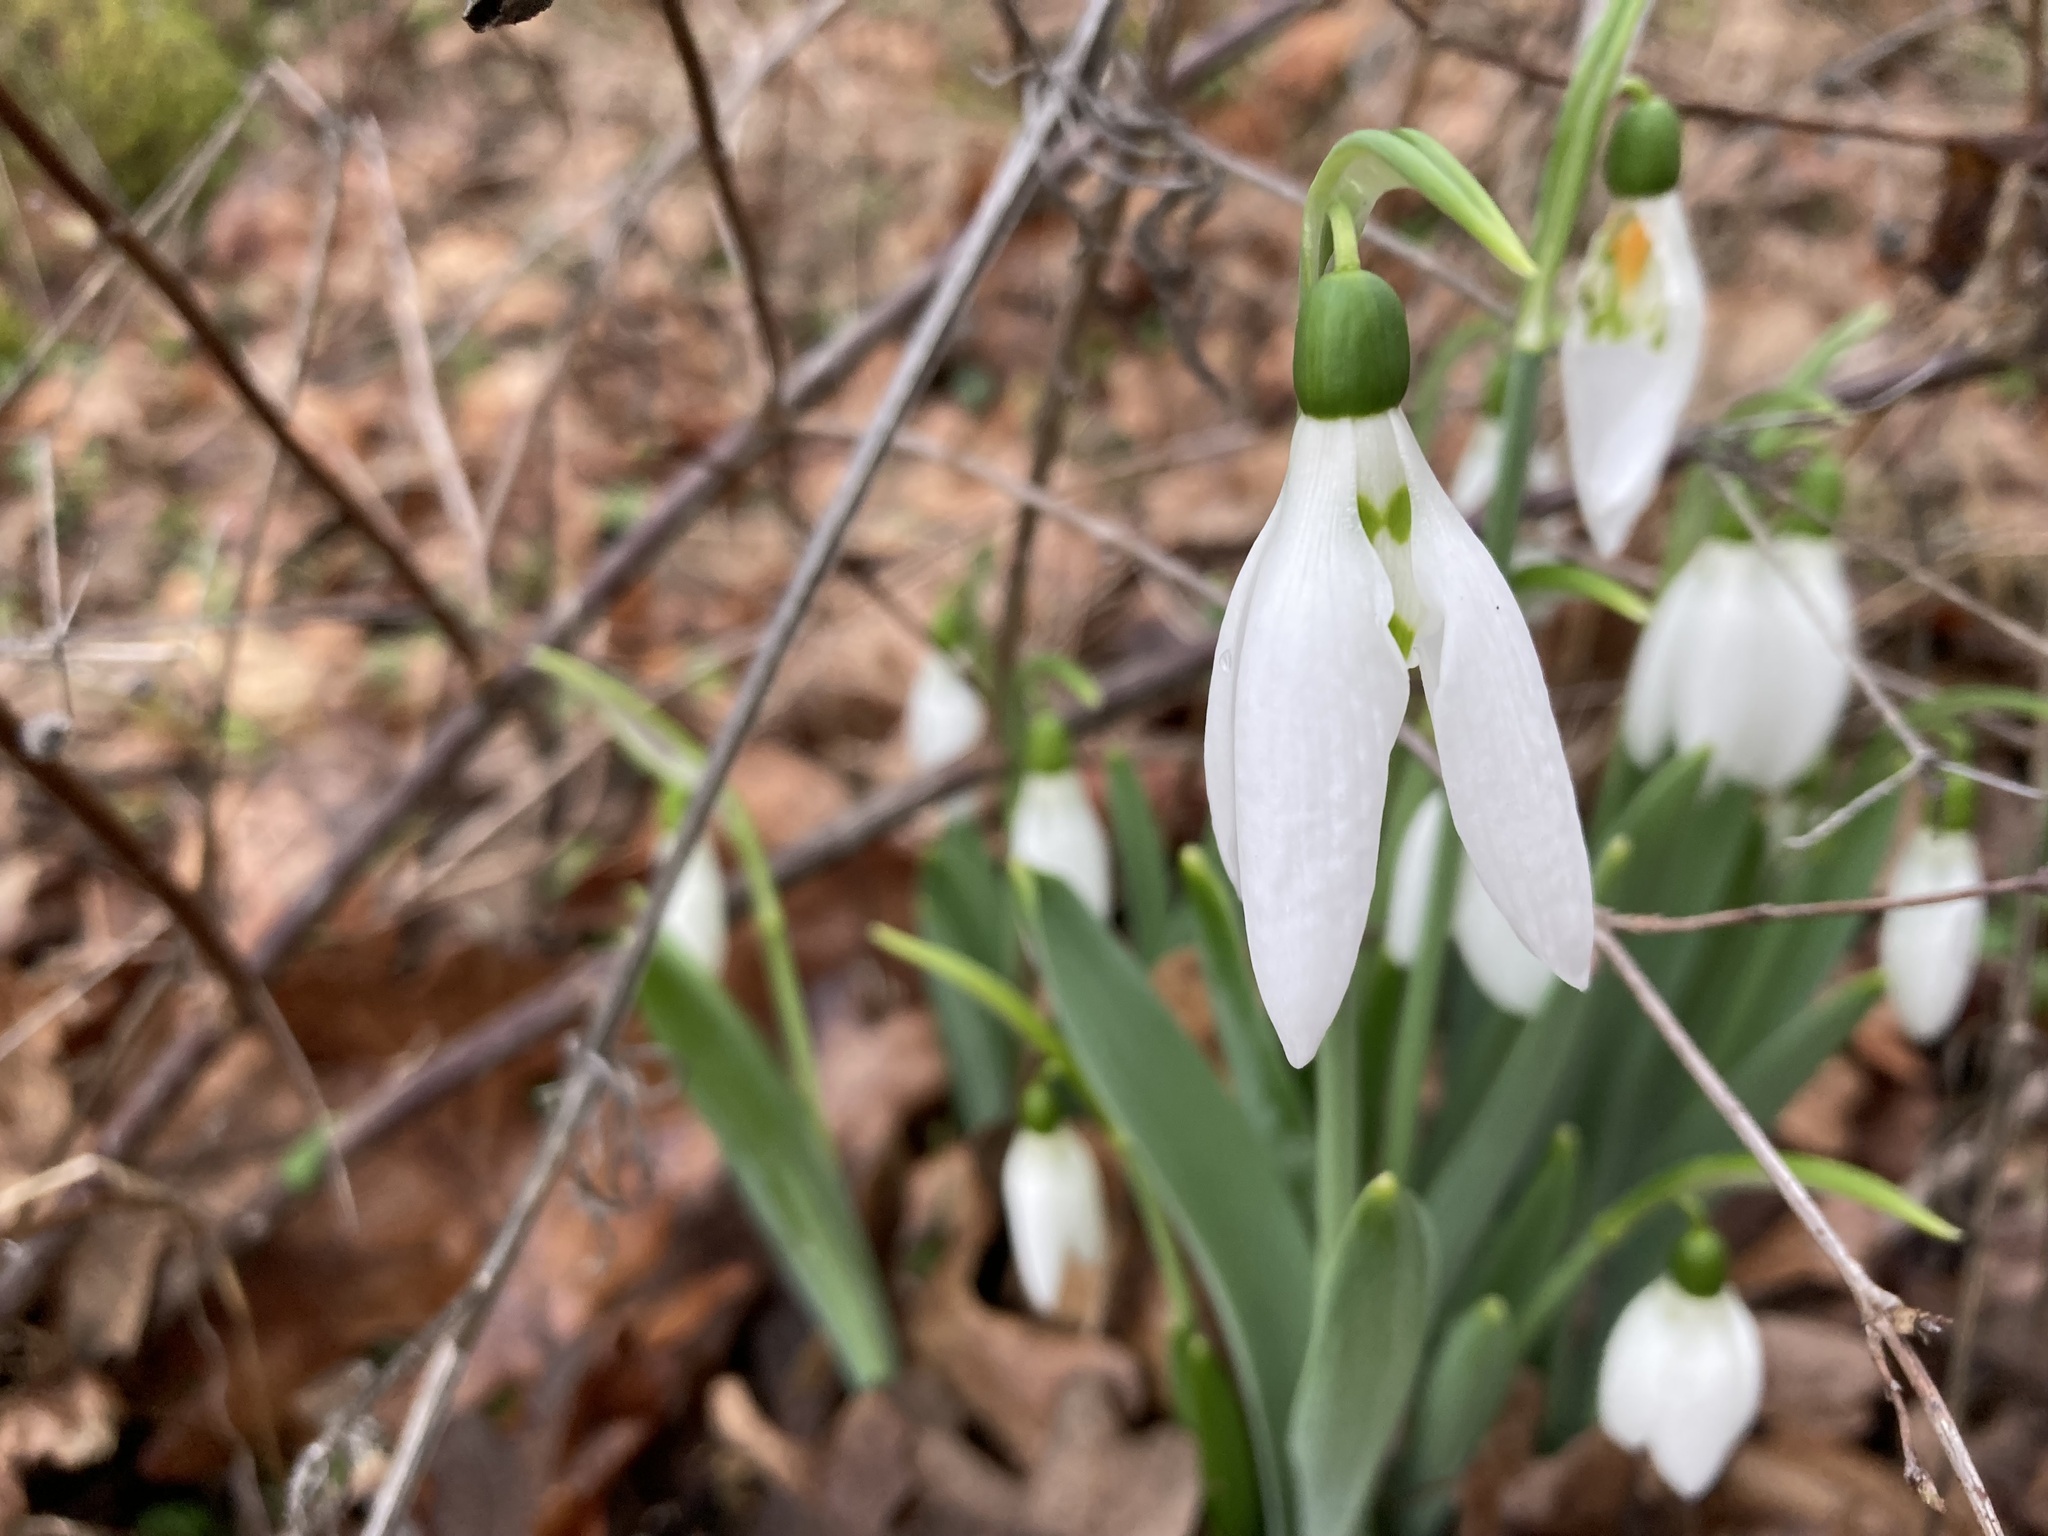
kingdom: Plantae
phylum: Tracheophyta
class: Liliopsida
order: Asparagales
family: Amaryllidaceae
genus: Galanthus
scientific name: Galanthus elwesii
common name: Greater snowdrop
